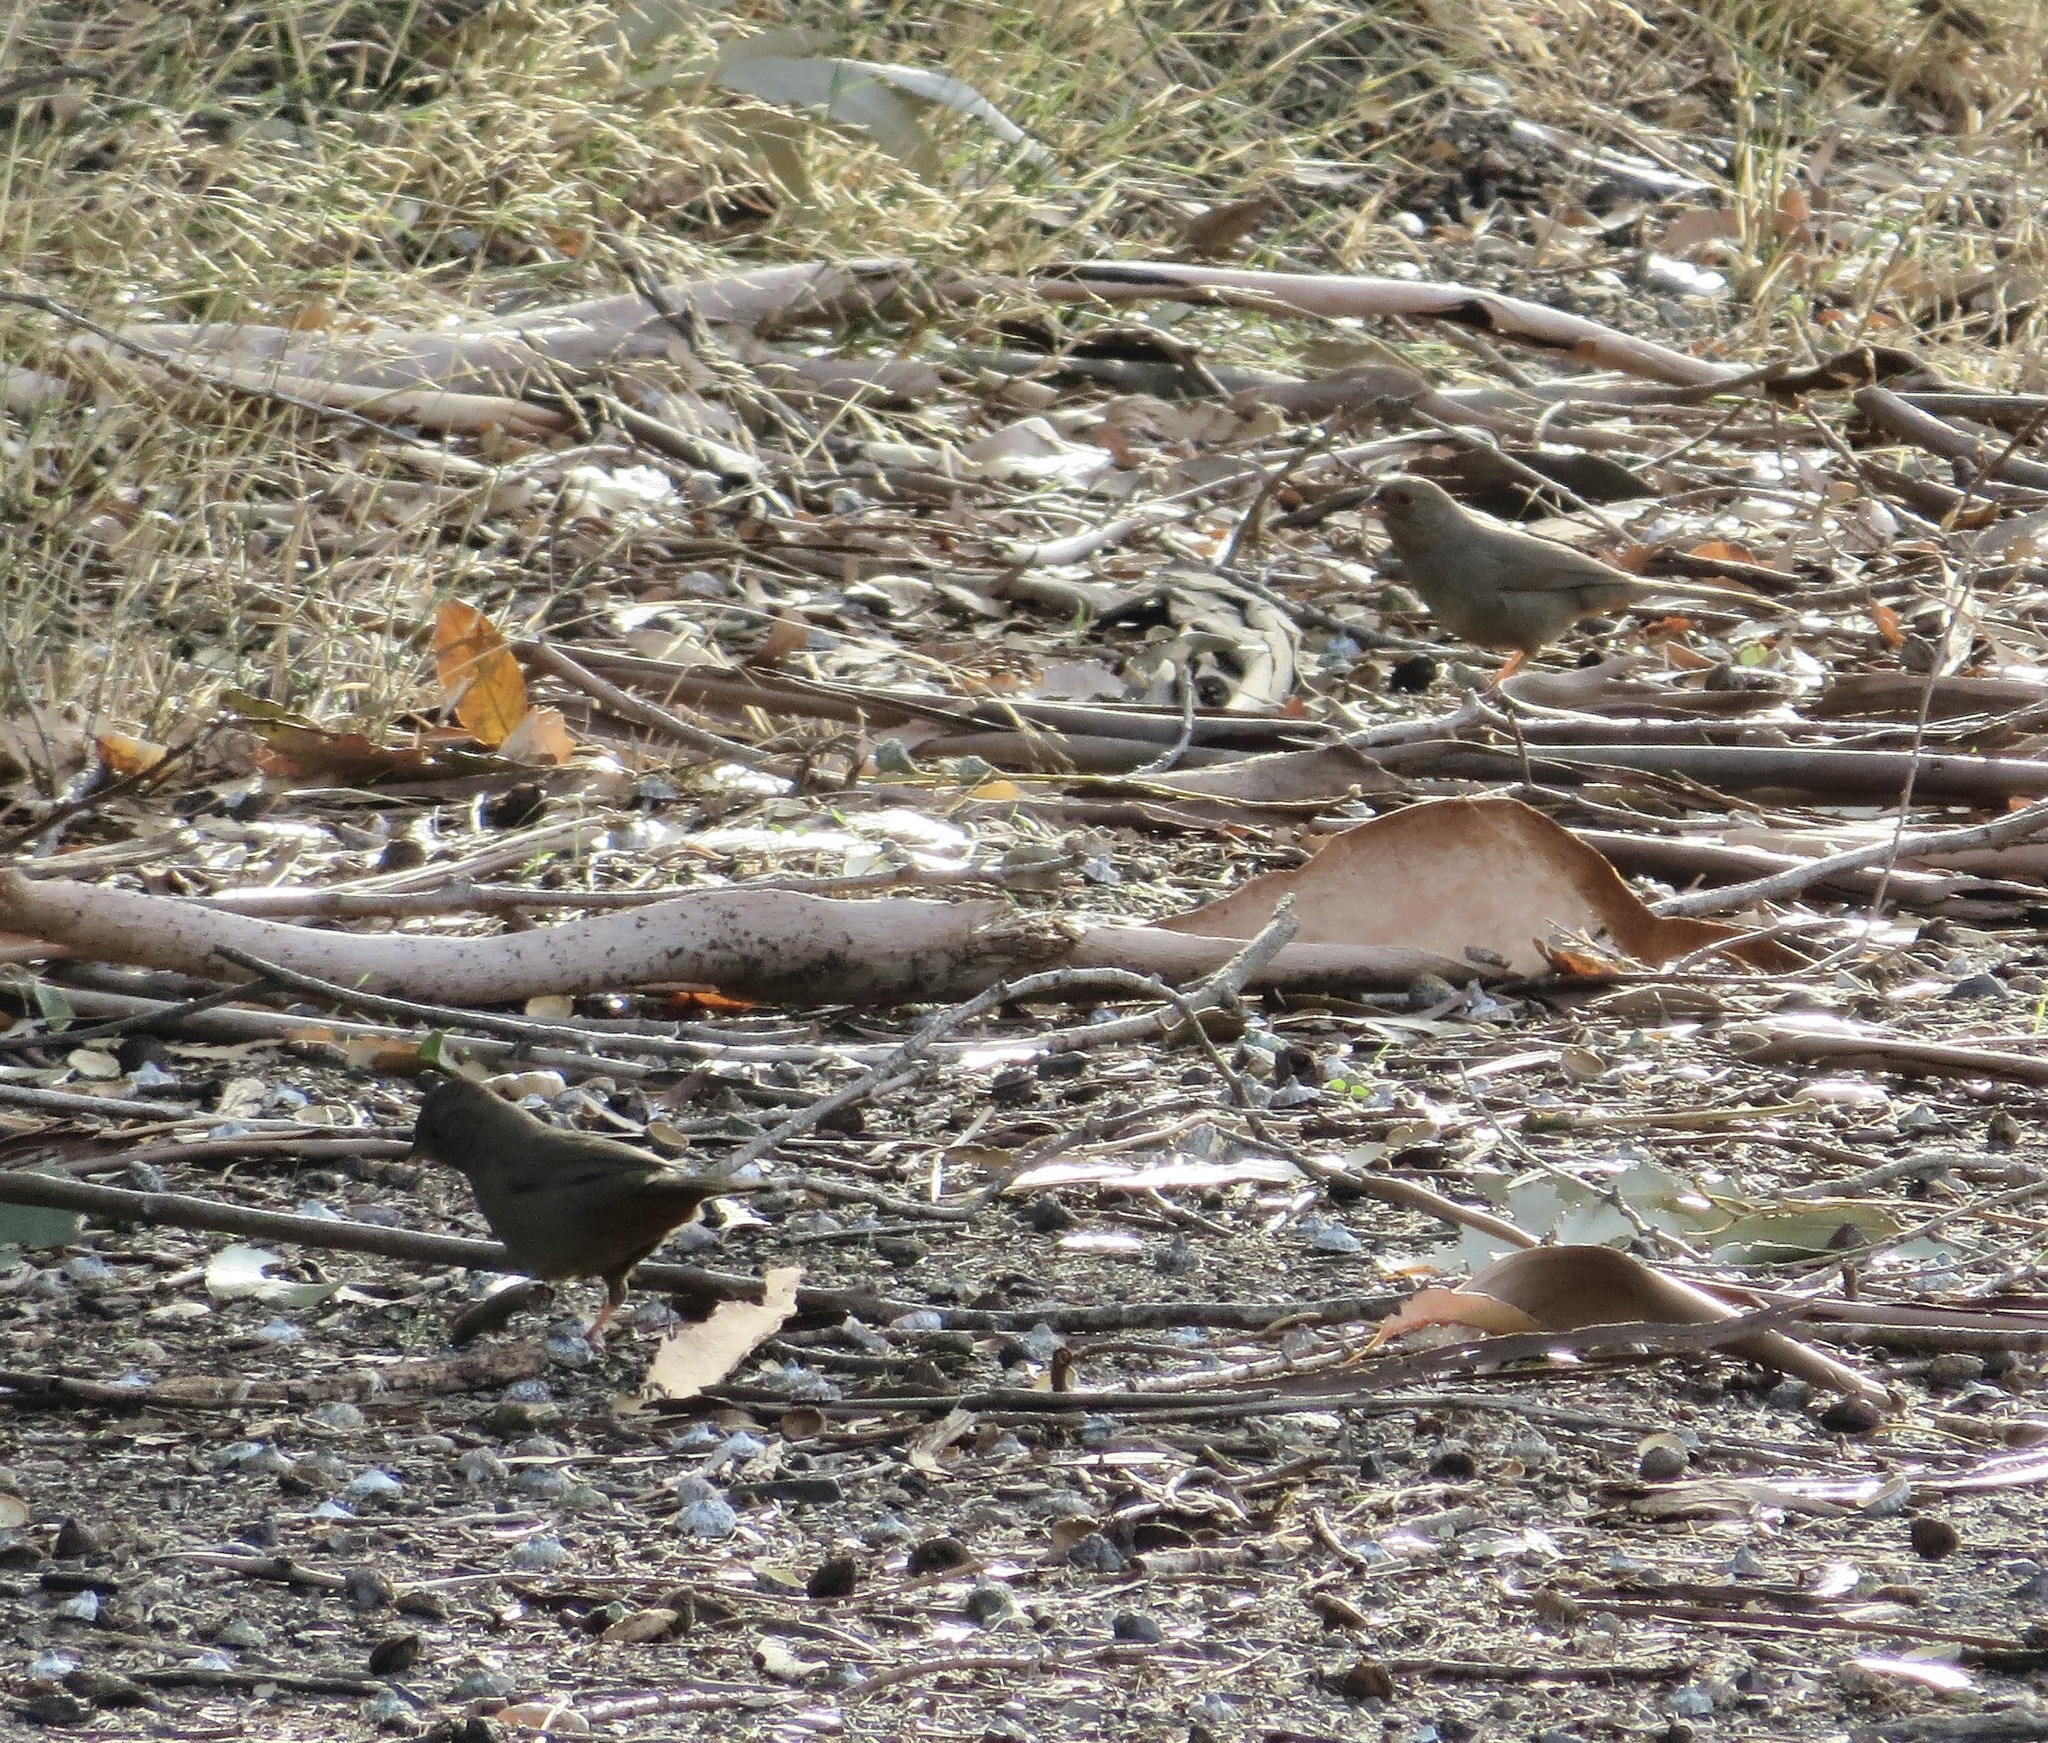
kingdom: Animalia
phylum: Chordata
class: Aves
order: Passeriformes
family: Passerellidae
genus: Melozone
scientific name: Melozone crissalis
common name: California towhee
